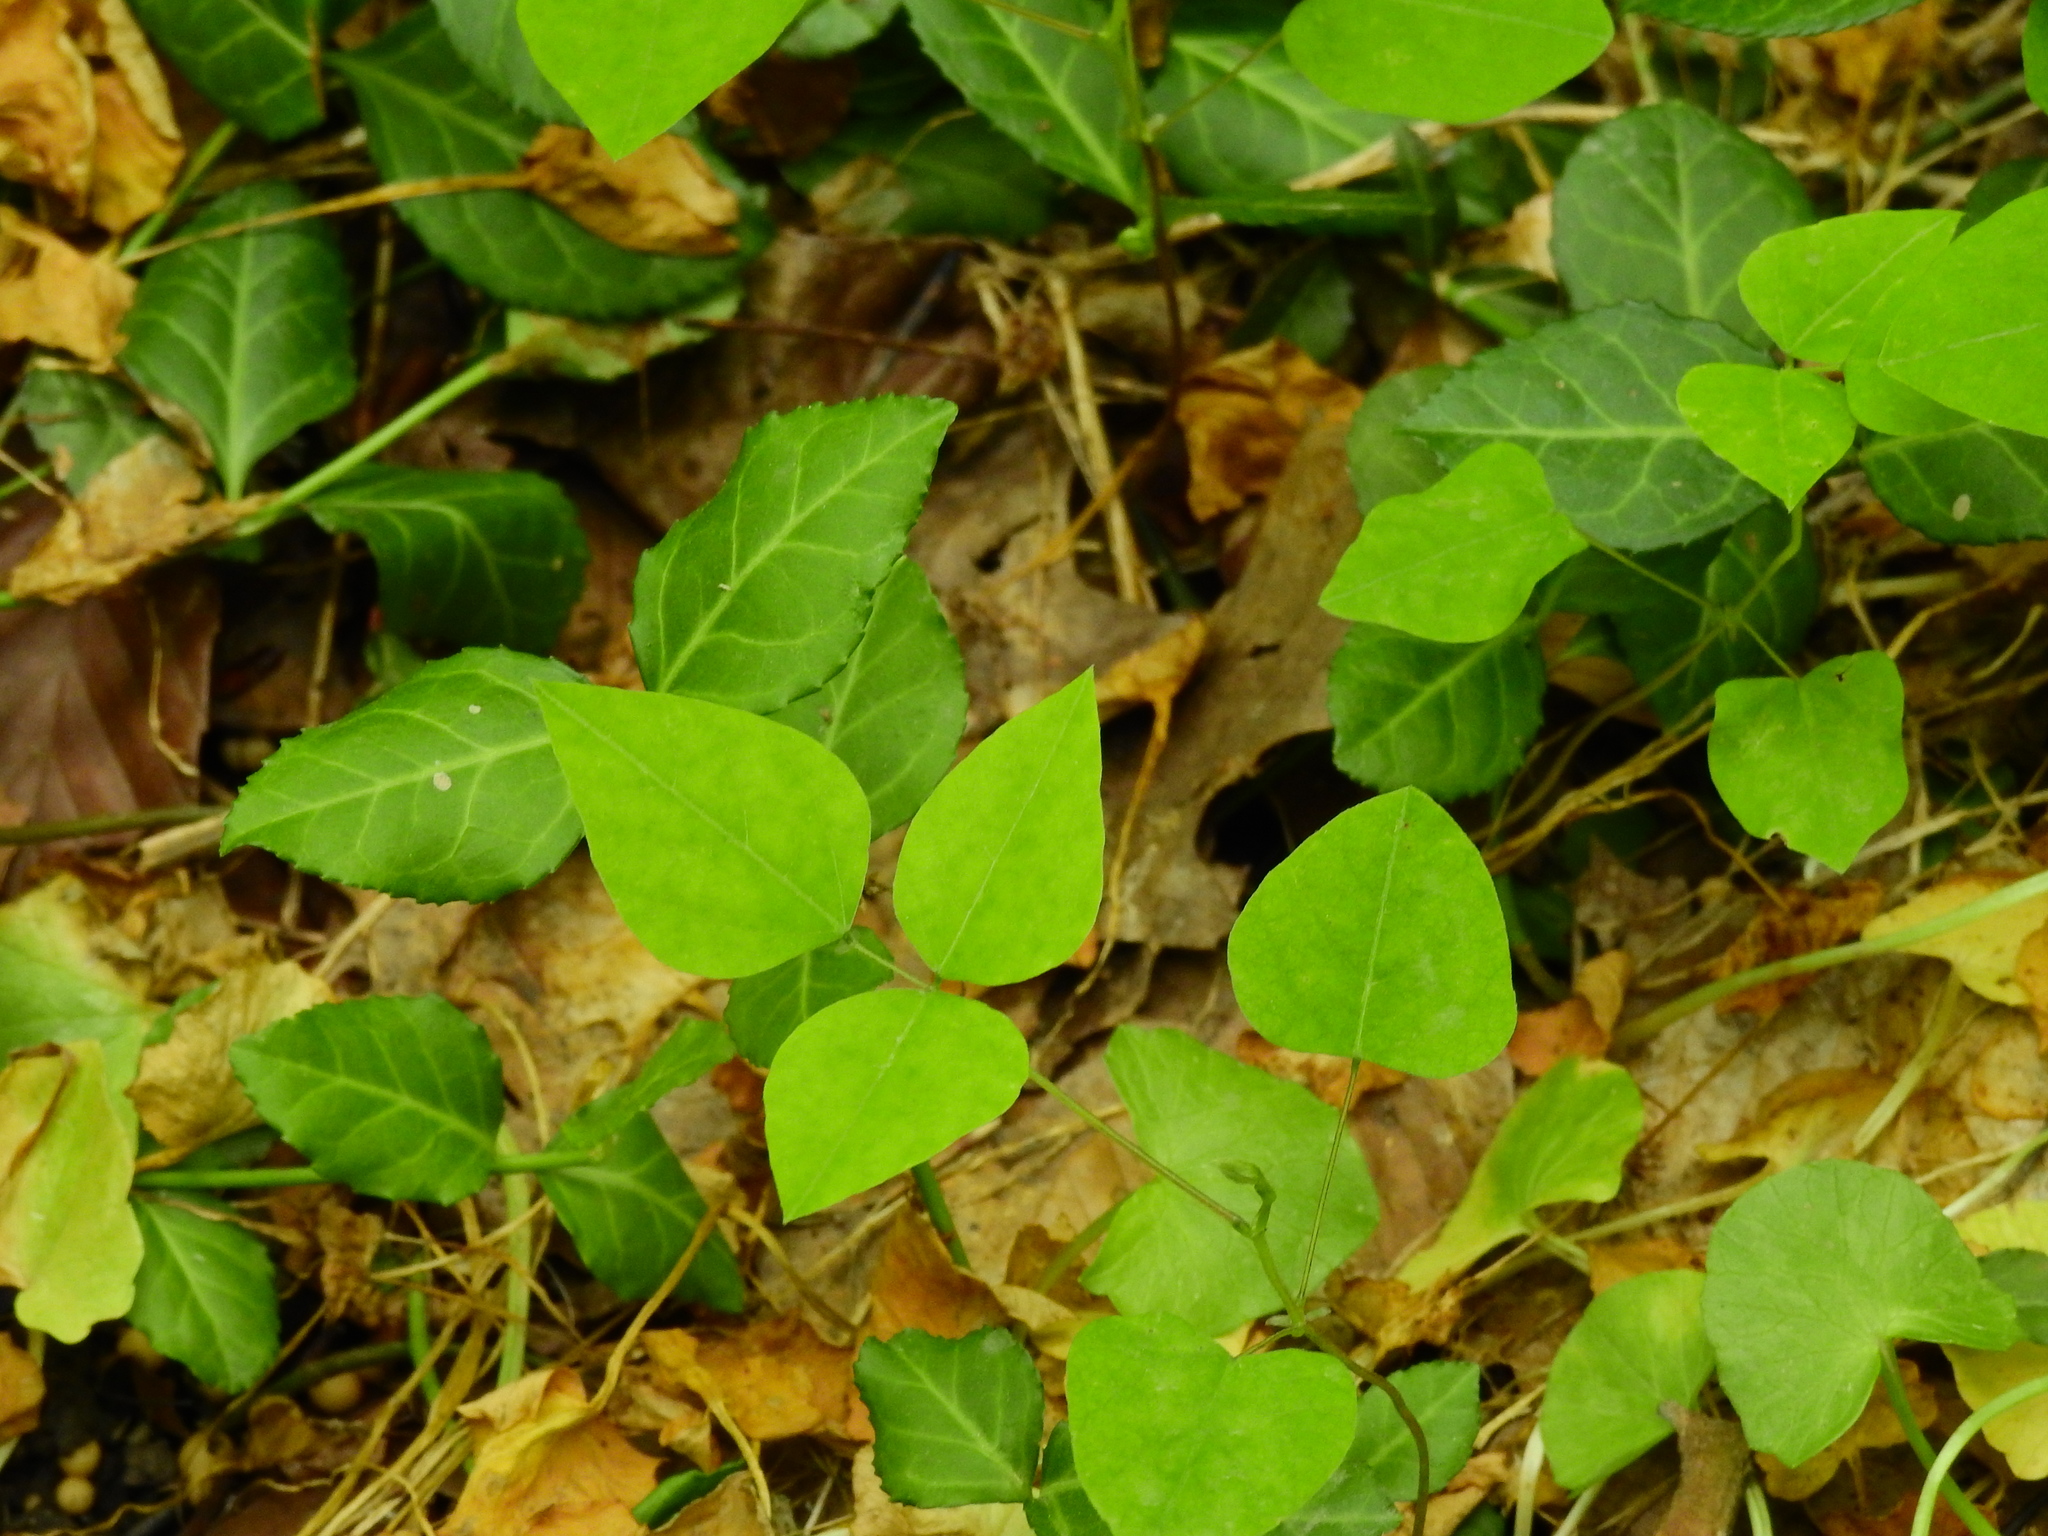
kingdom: Plantae
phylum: Tracheophyta
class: Magnoliopsida
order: Fabales
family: Fabaceae
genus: Amphicarpaea
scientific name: Amphicarpaea bracteata
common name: American hog peanut
